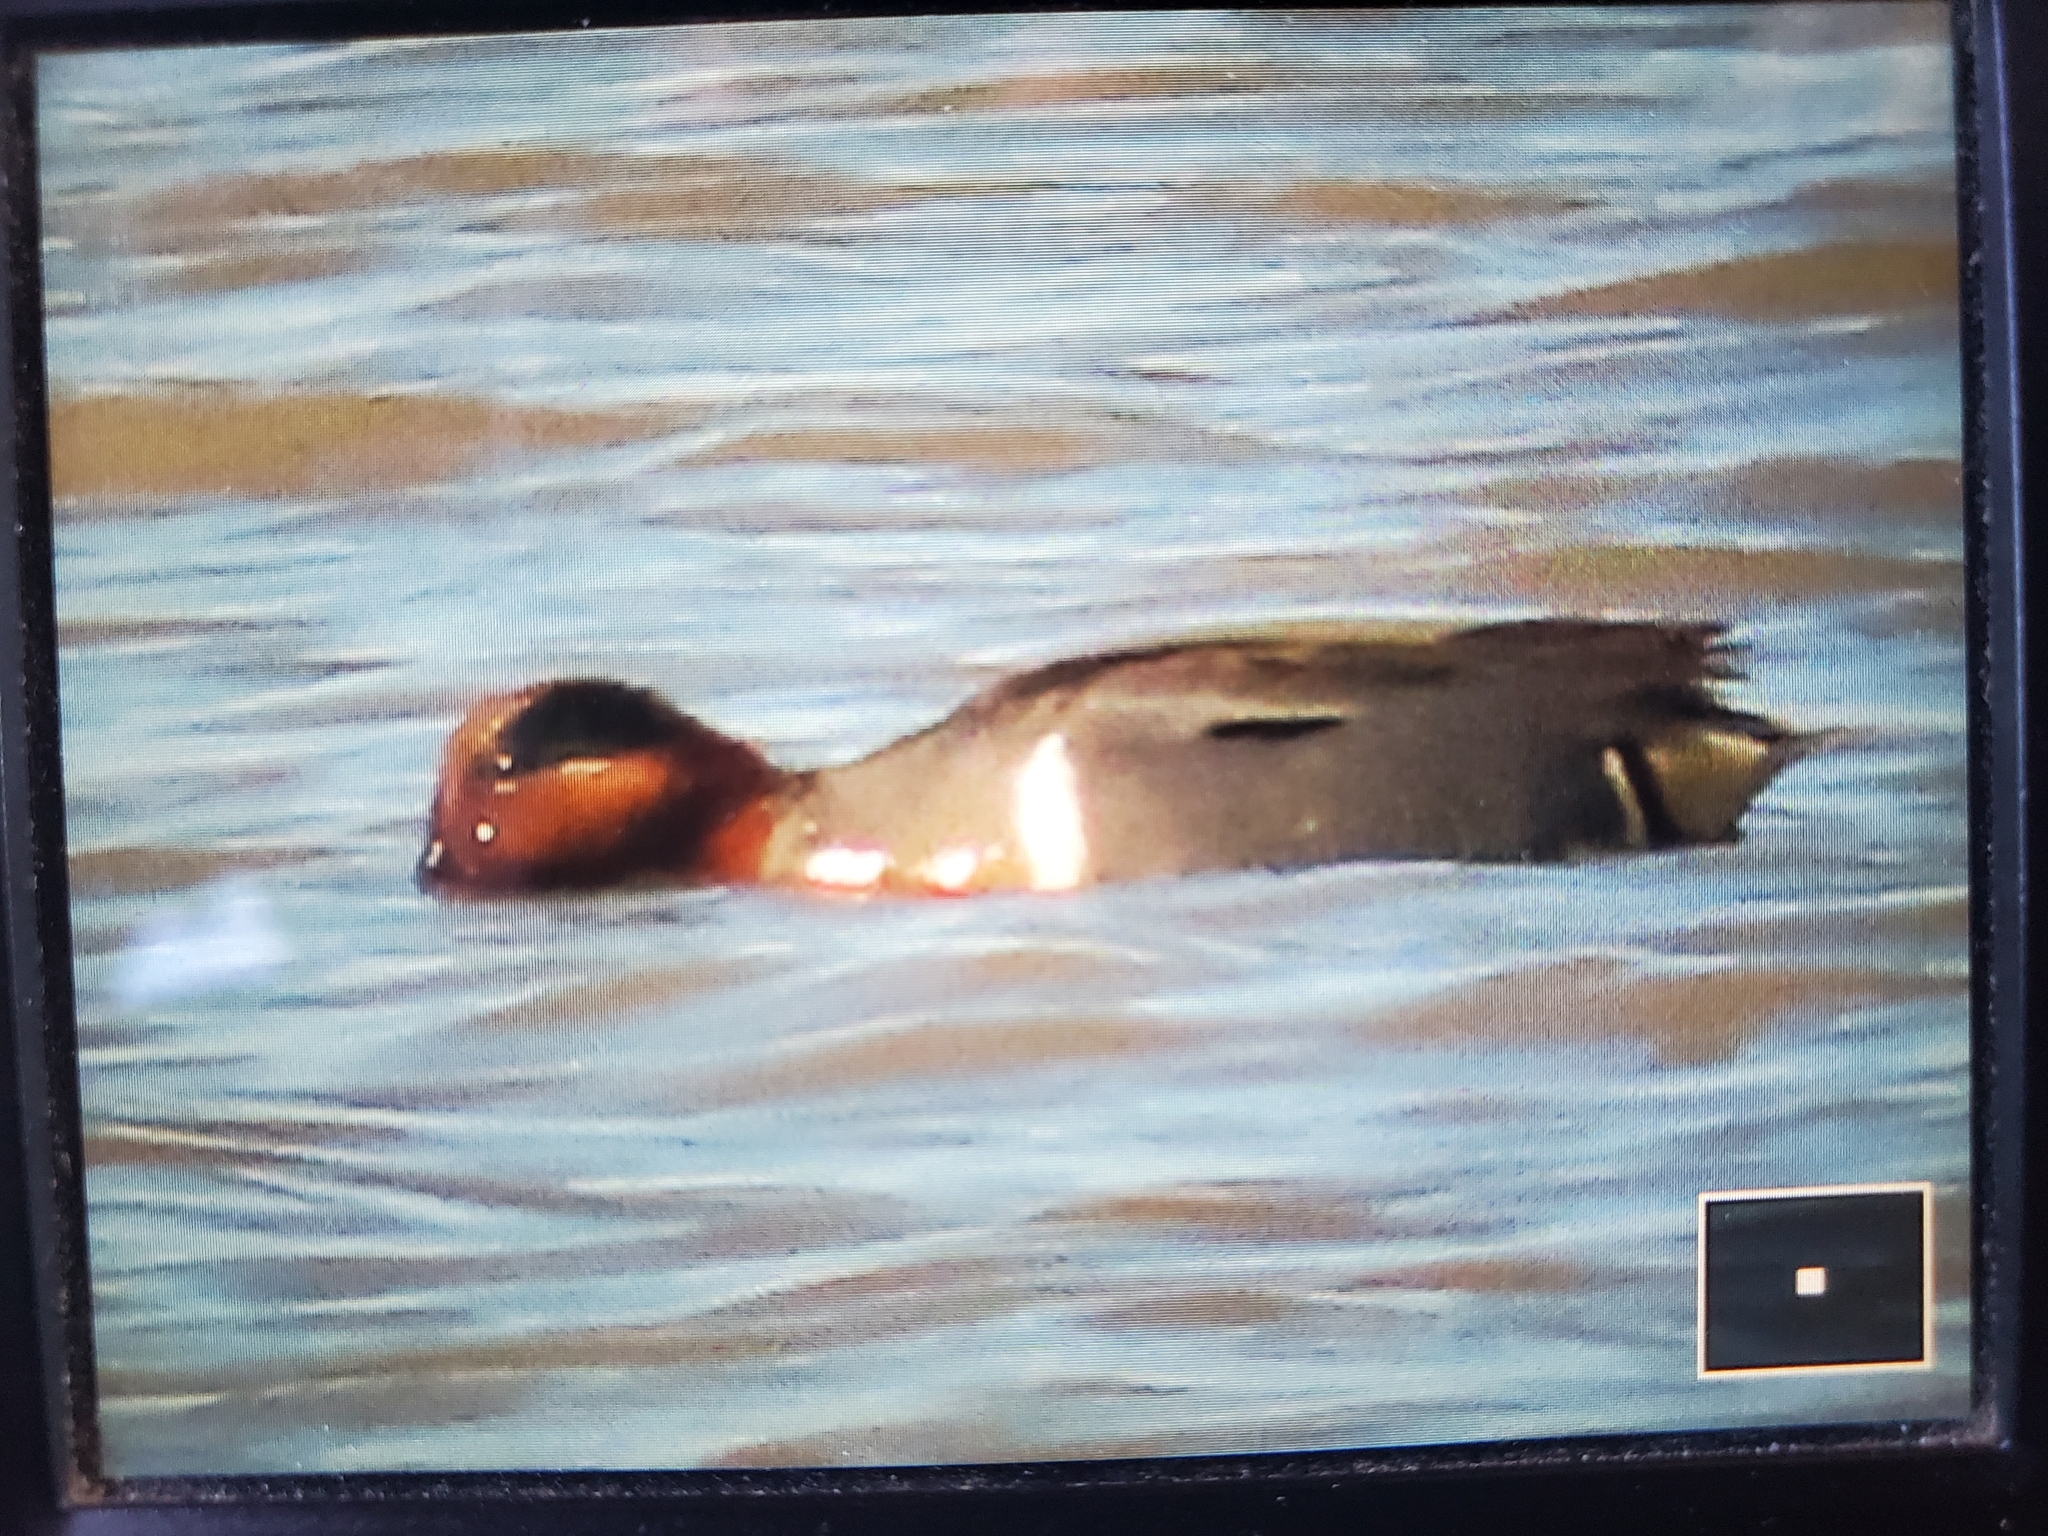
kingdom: Animalia
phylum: Chordata
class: Aves
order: Anseriformes
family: Anatidae
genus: Anas
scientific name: Anas crecca
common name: Eurasian teal
